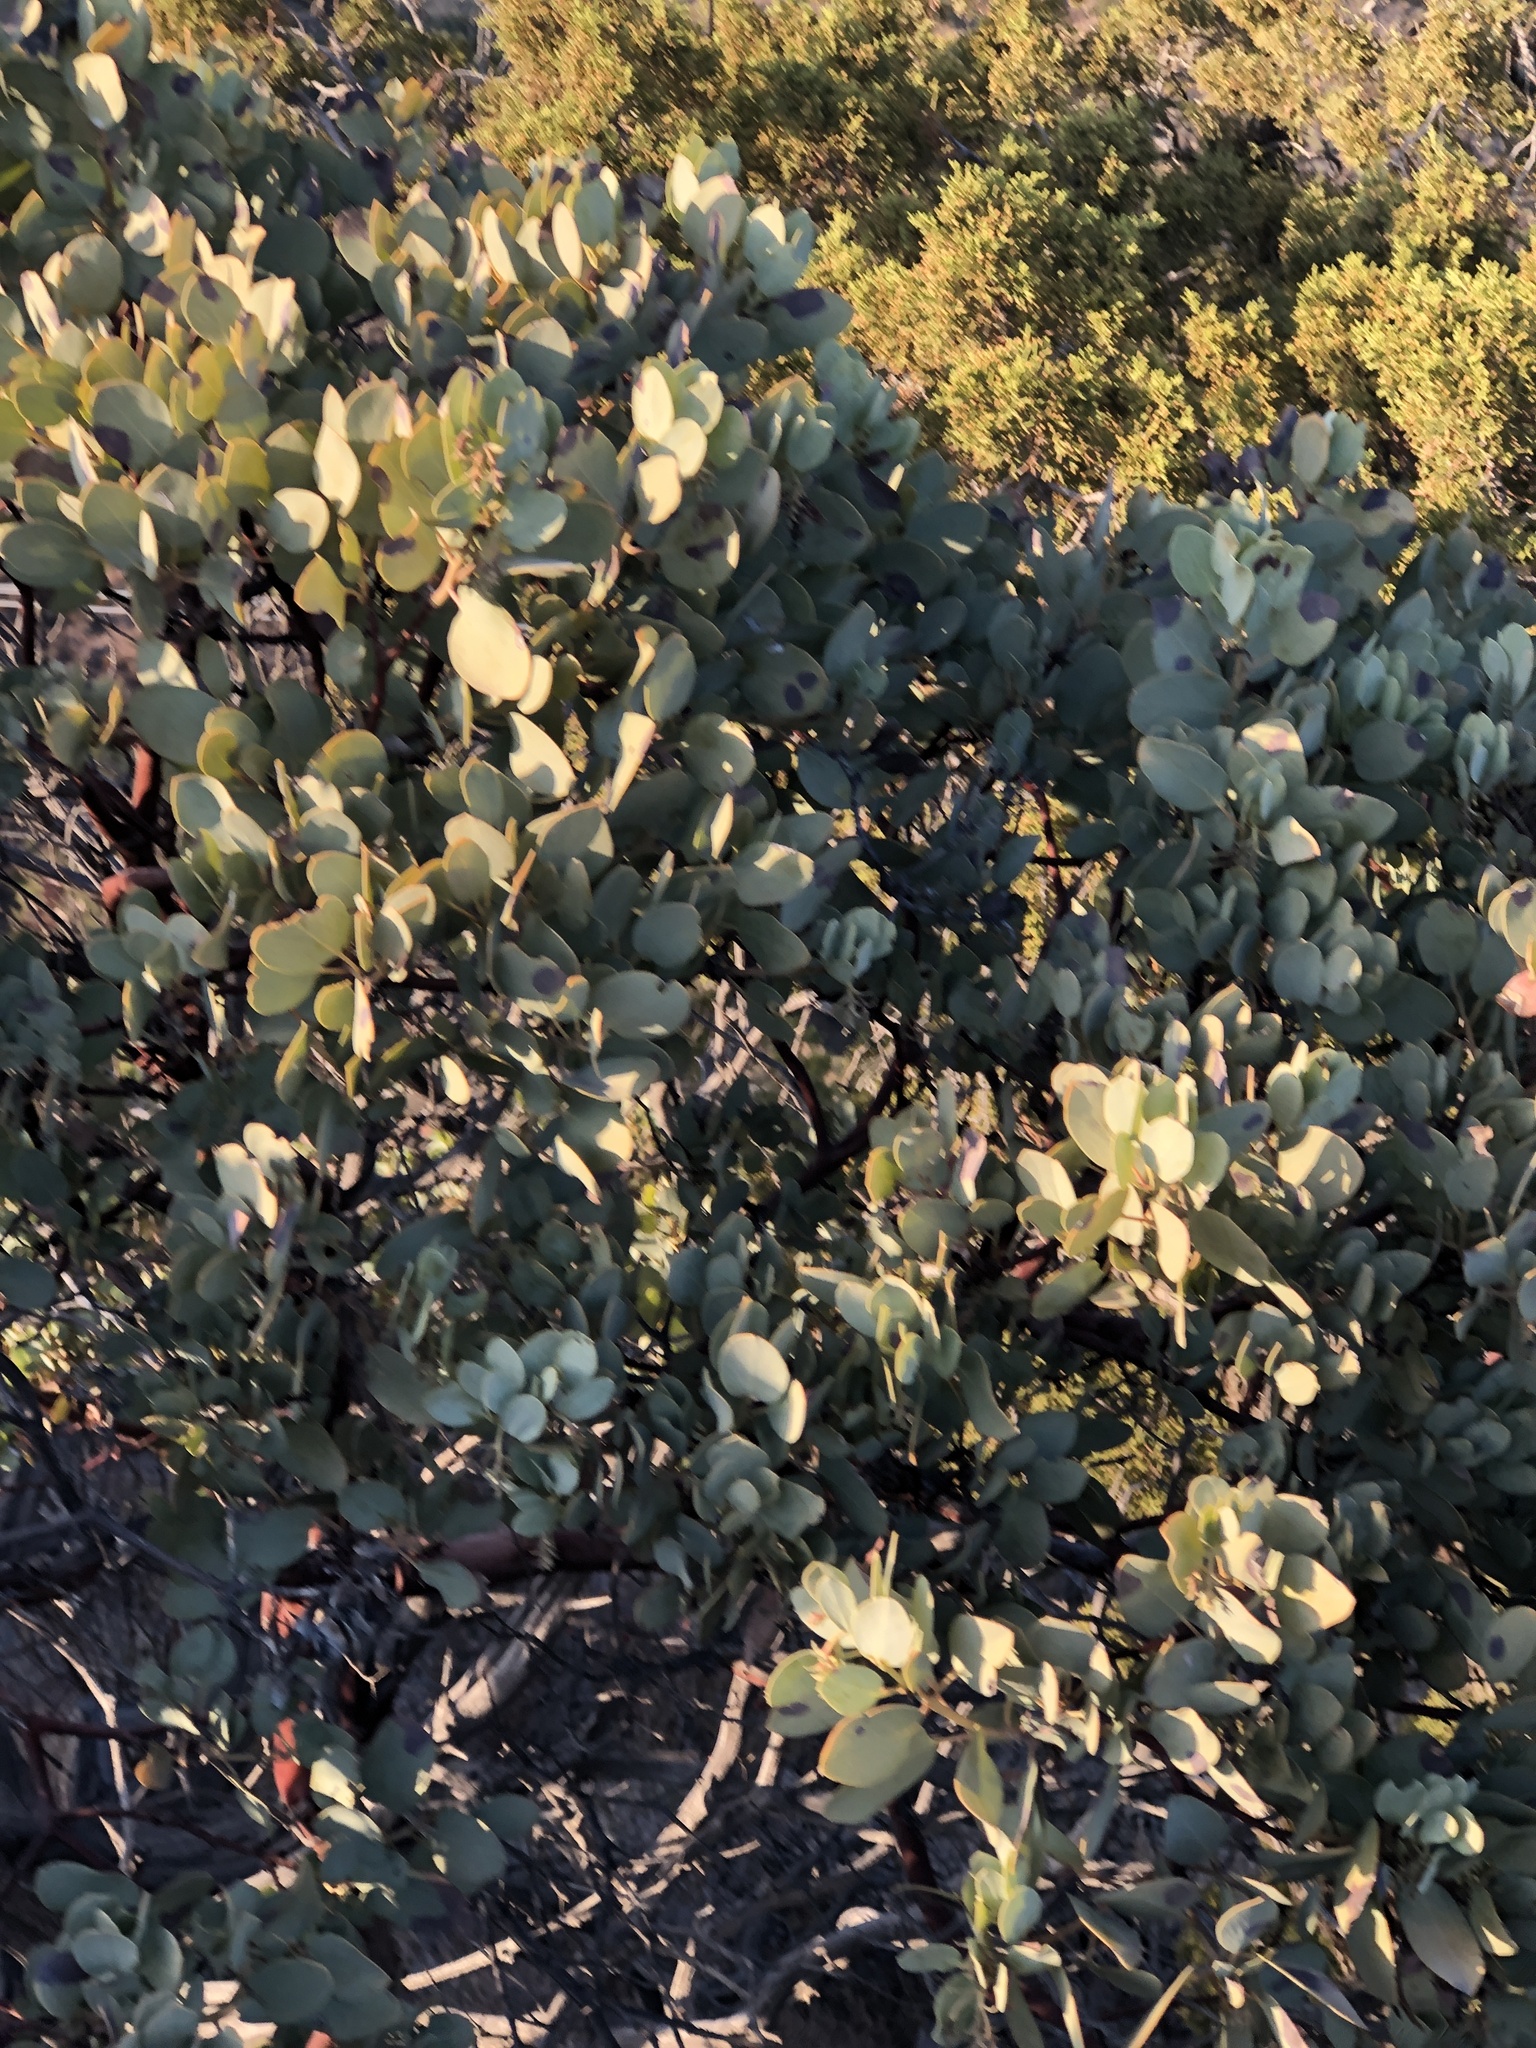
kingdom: Plantae
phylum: Tracheophyta
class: Magnoliopsida
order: Ericales
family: Ericaceae
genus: Arctostaphylos
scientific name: Arctostaphylos glauca
